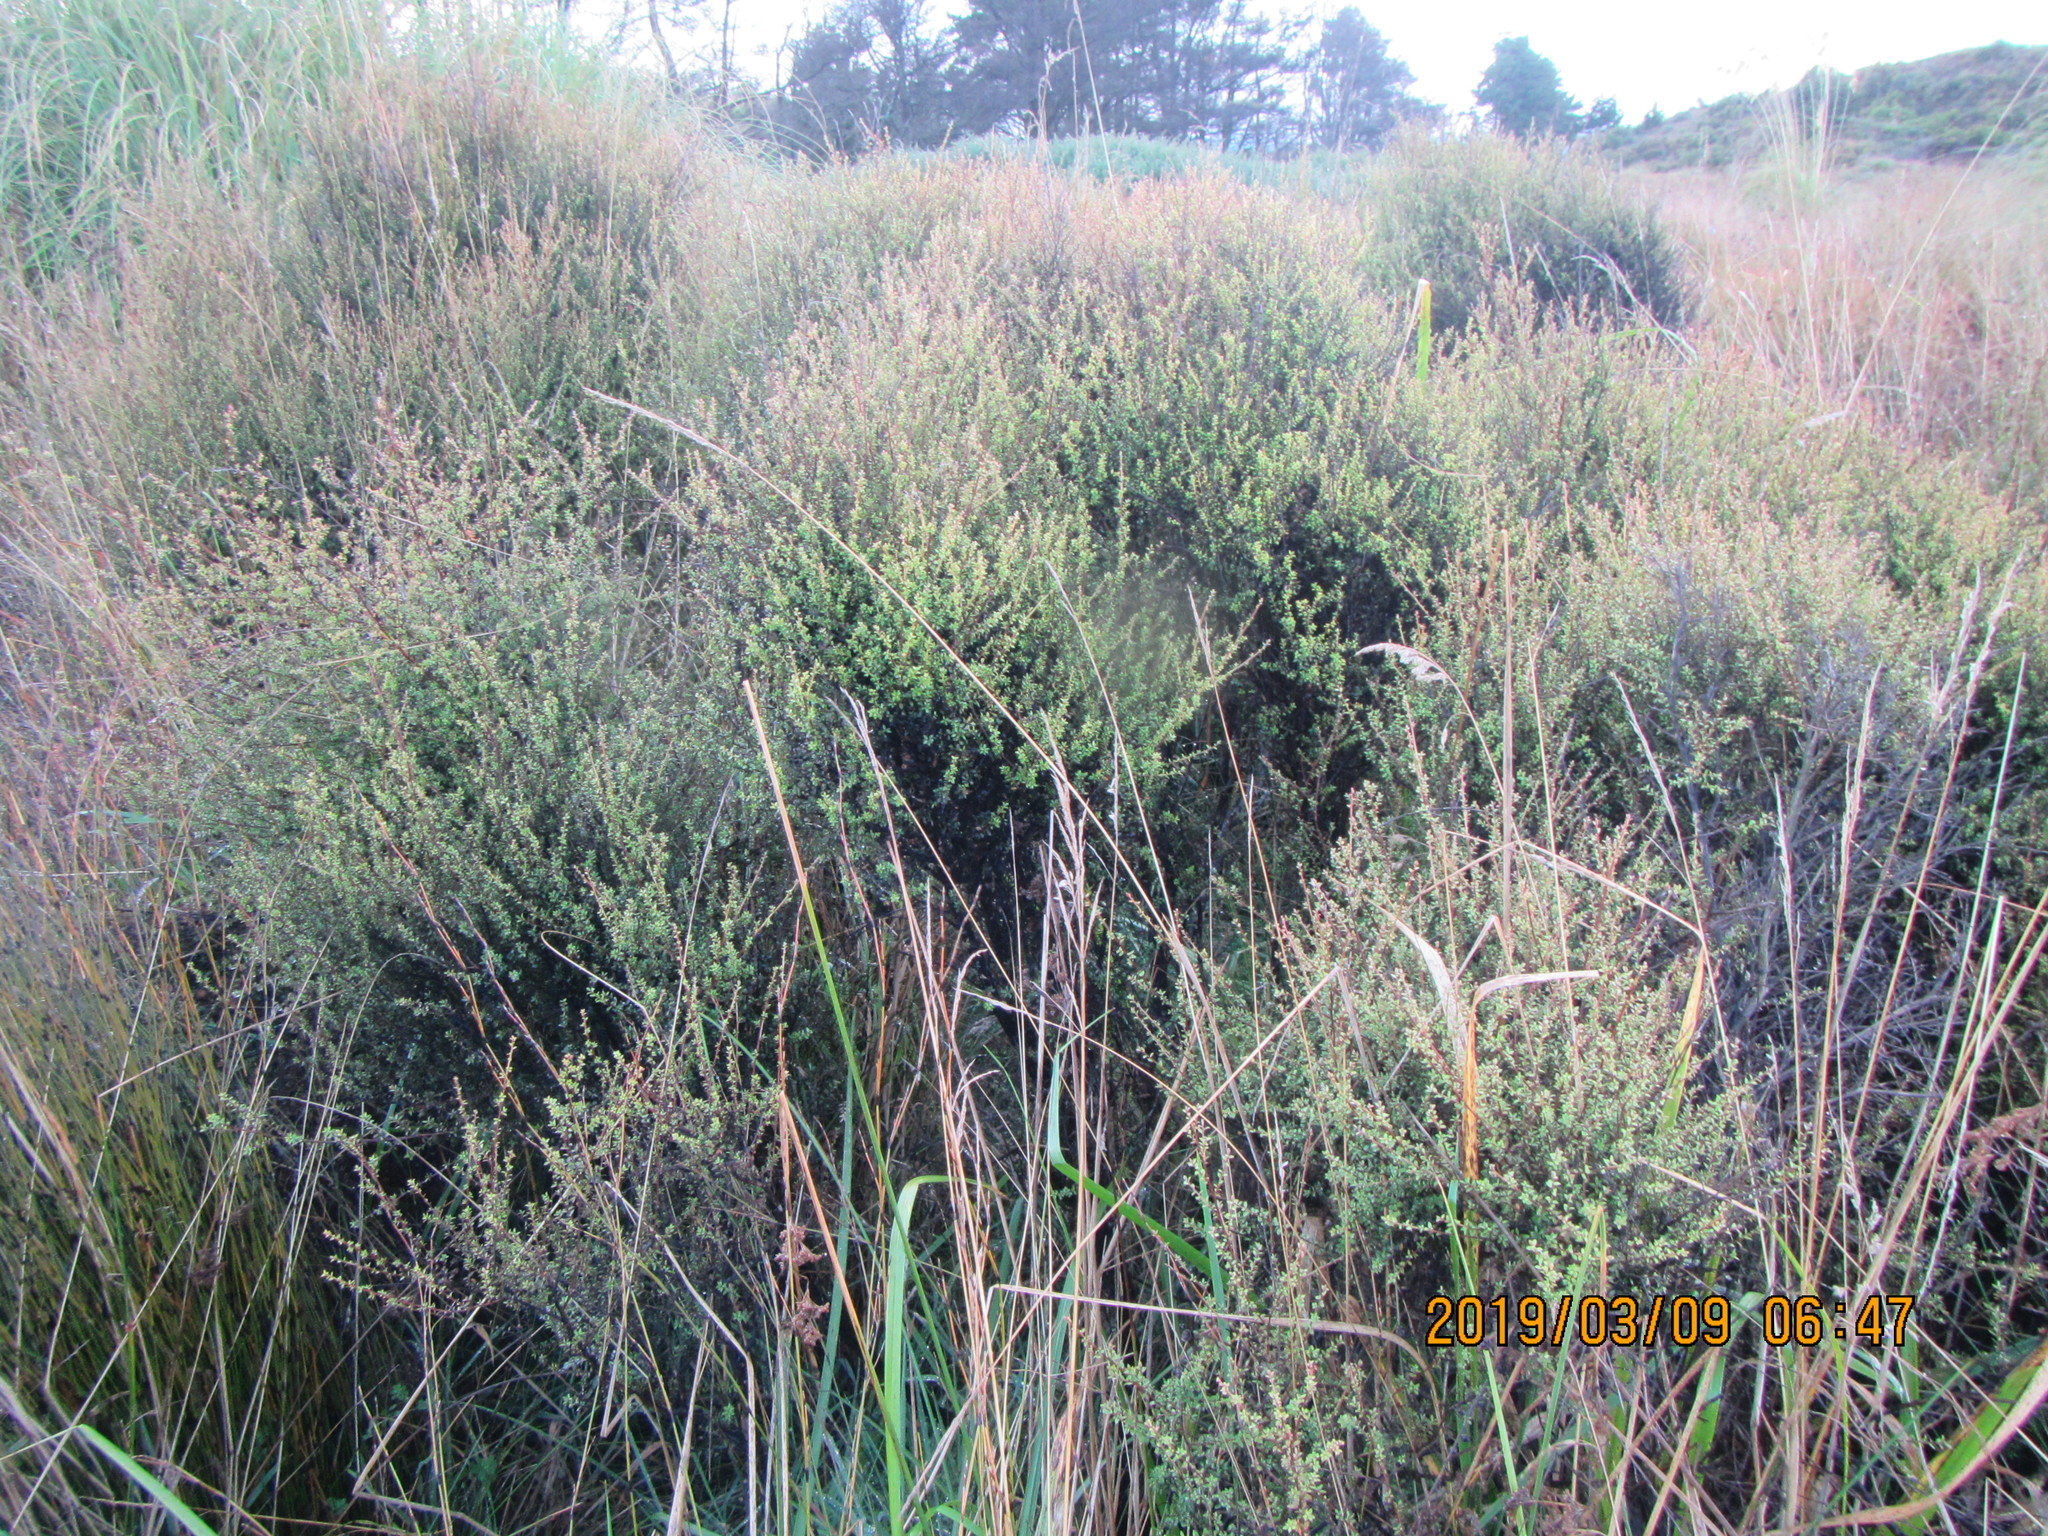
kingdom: Plantae
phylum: Tracheophyta
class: Magnoliopsida
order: Myrtales
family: Myrtaceae
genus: Leptospermum
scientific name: Leptospermum scoparium
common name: Broom tea-tree
